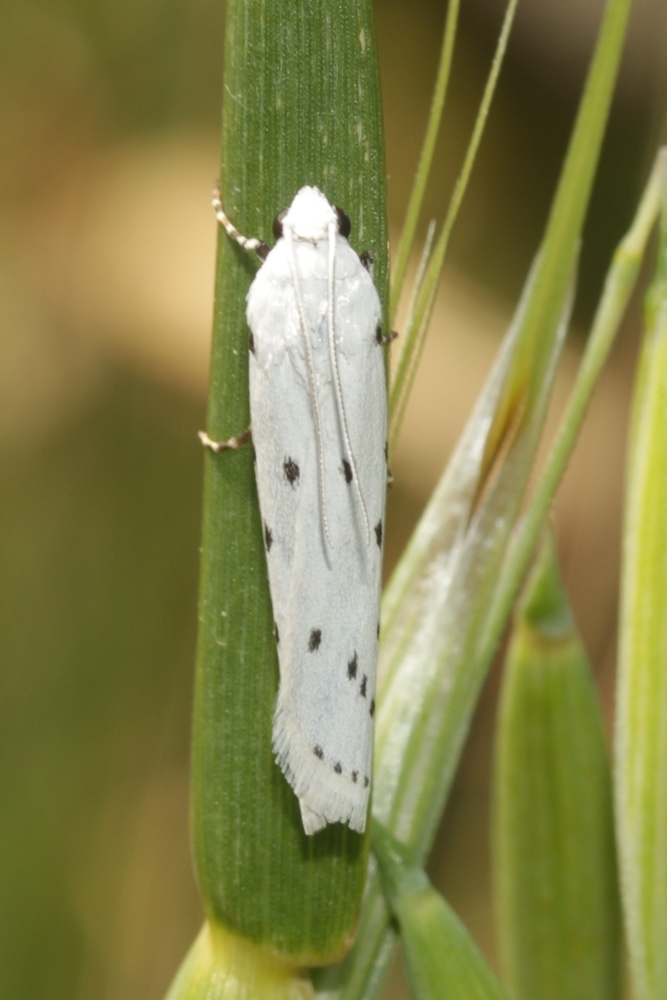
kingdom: Animalia
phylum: Arthropoda
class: Insecta
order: Lepidoptera
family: Pyralidae
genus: Myelois
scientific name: Myelois circumvoluta
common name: Thistle ermine
